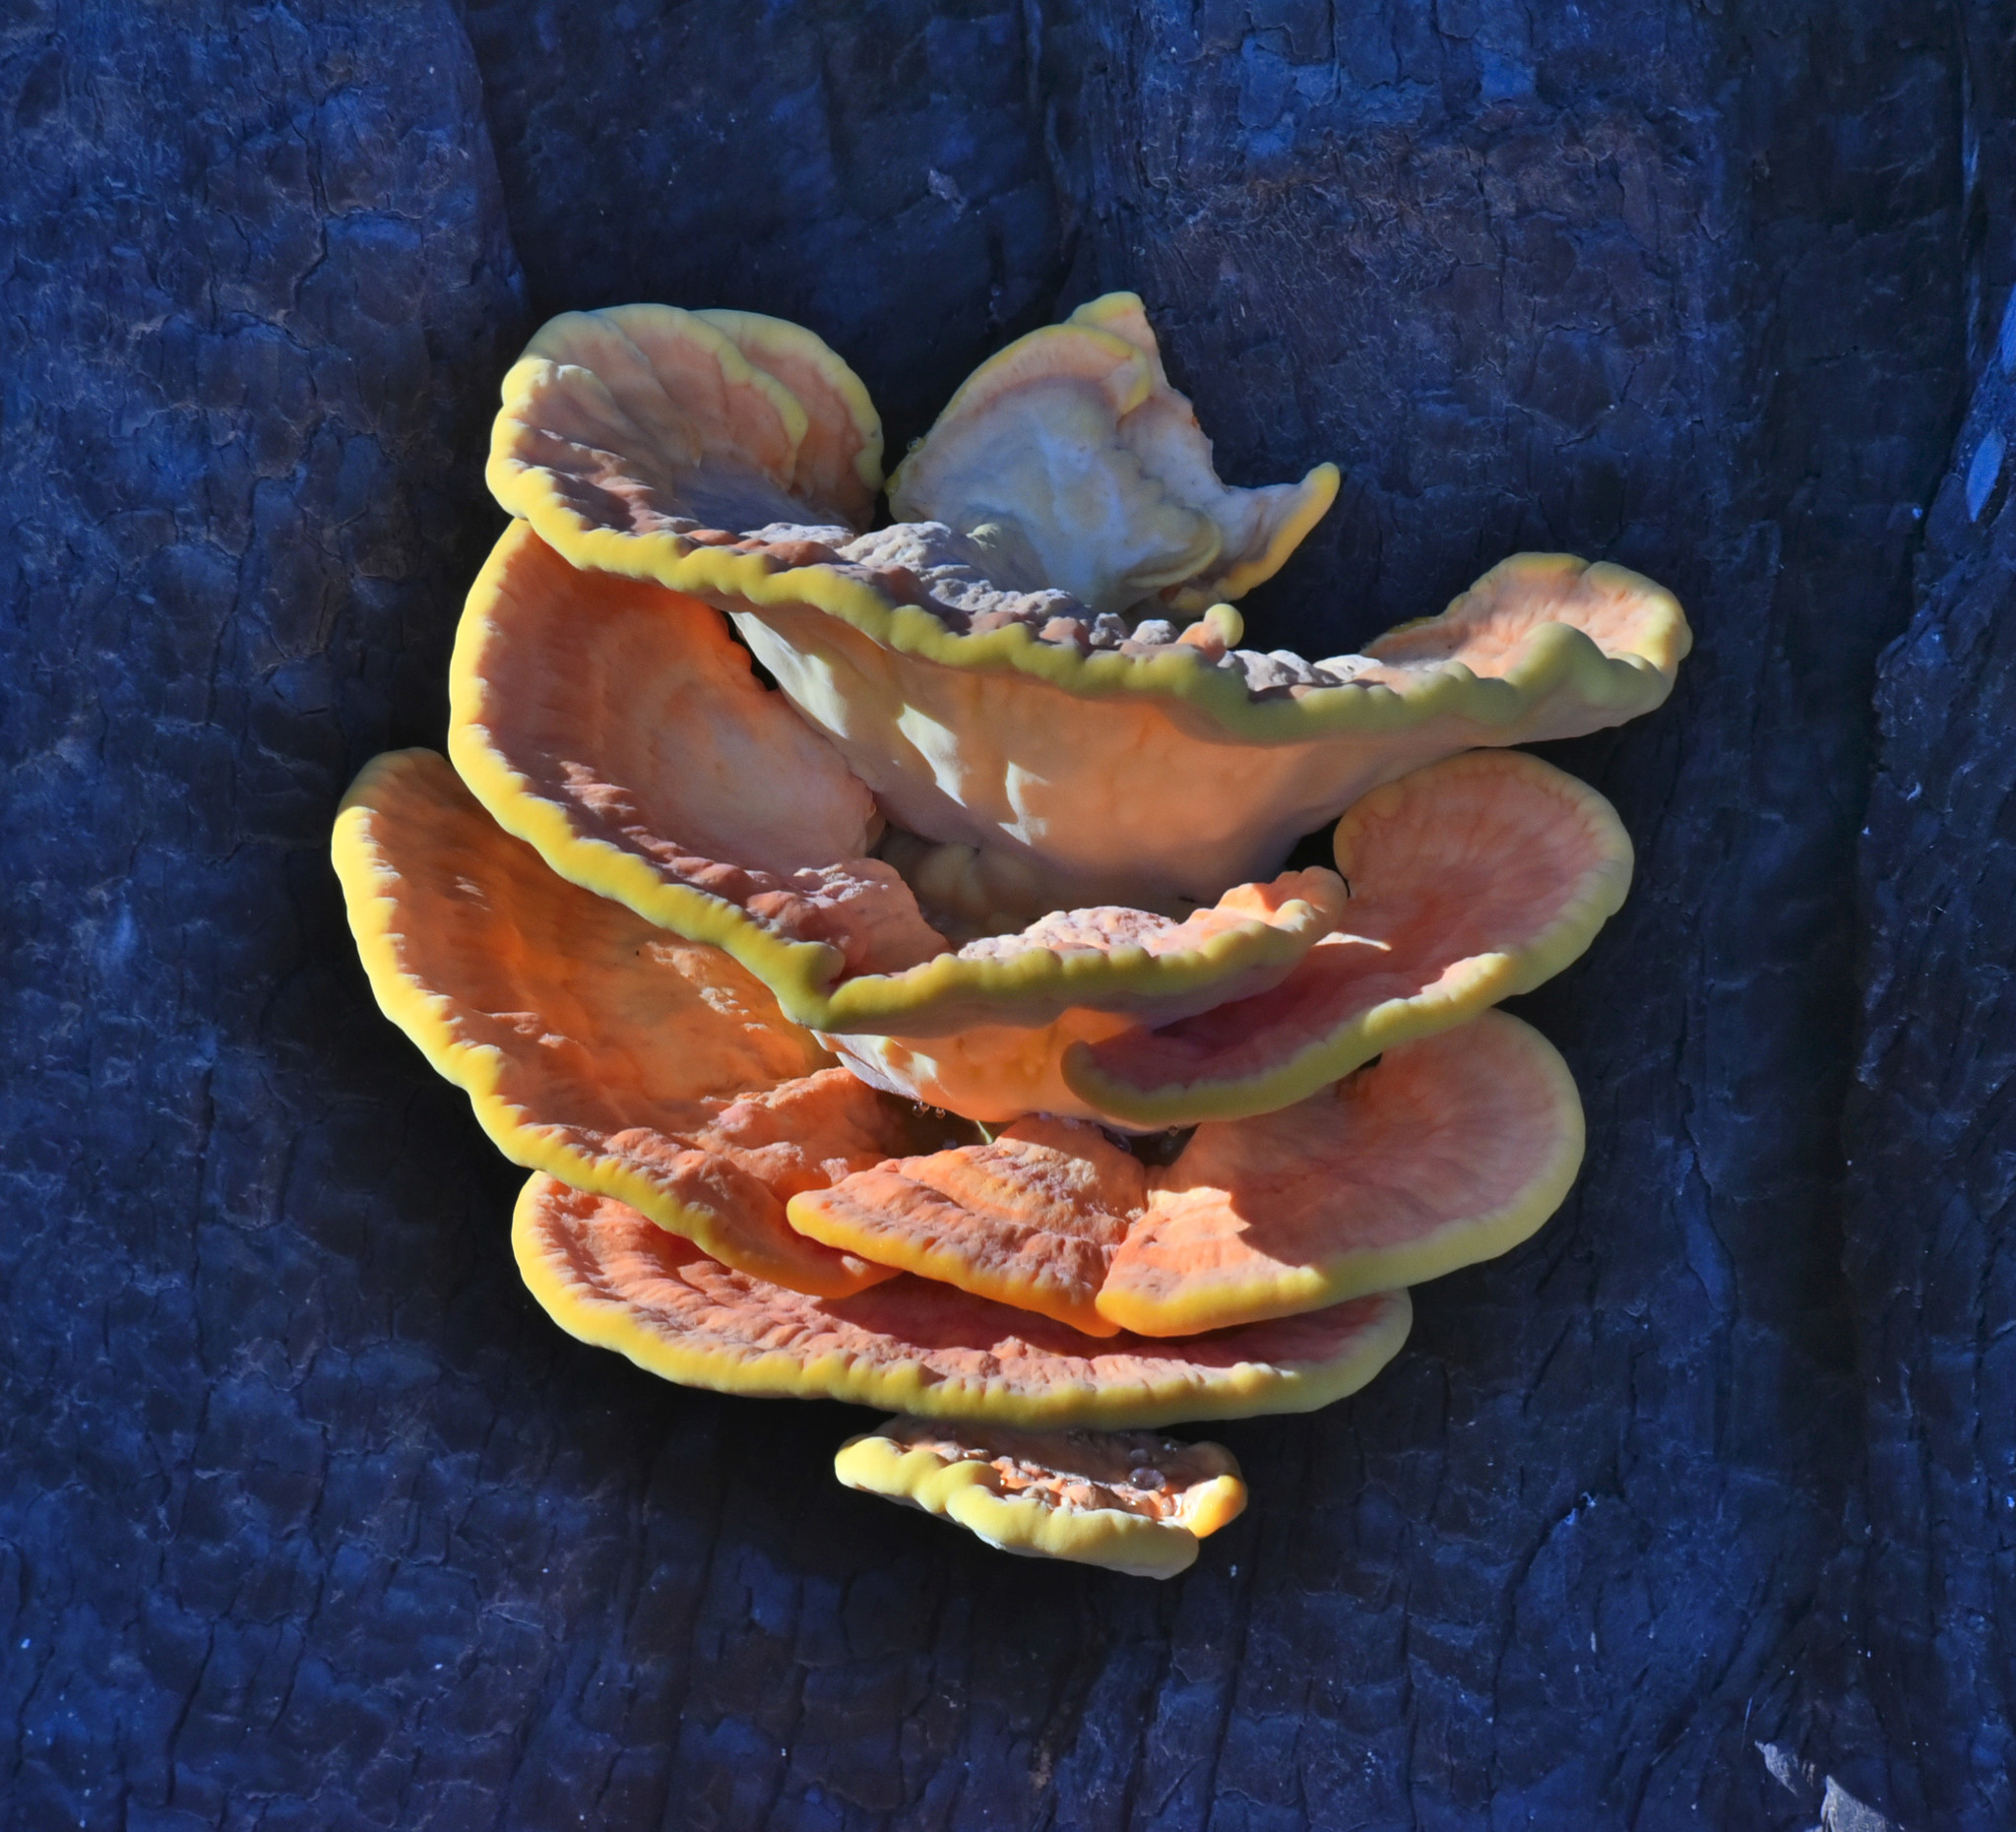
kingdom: Fungi
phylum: Basidiomycota
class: Agaricomycetes
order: Polyporales
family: Laetiporaceae
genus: Laetiporus
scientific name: Laetiporus gilbertsonii
